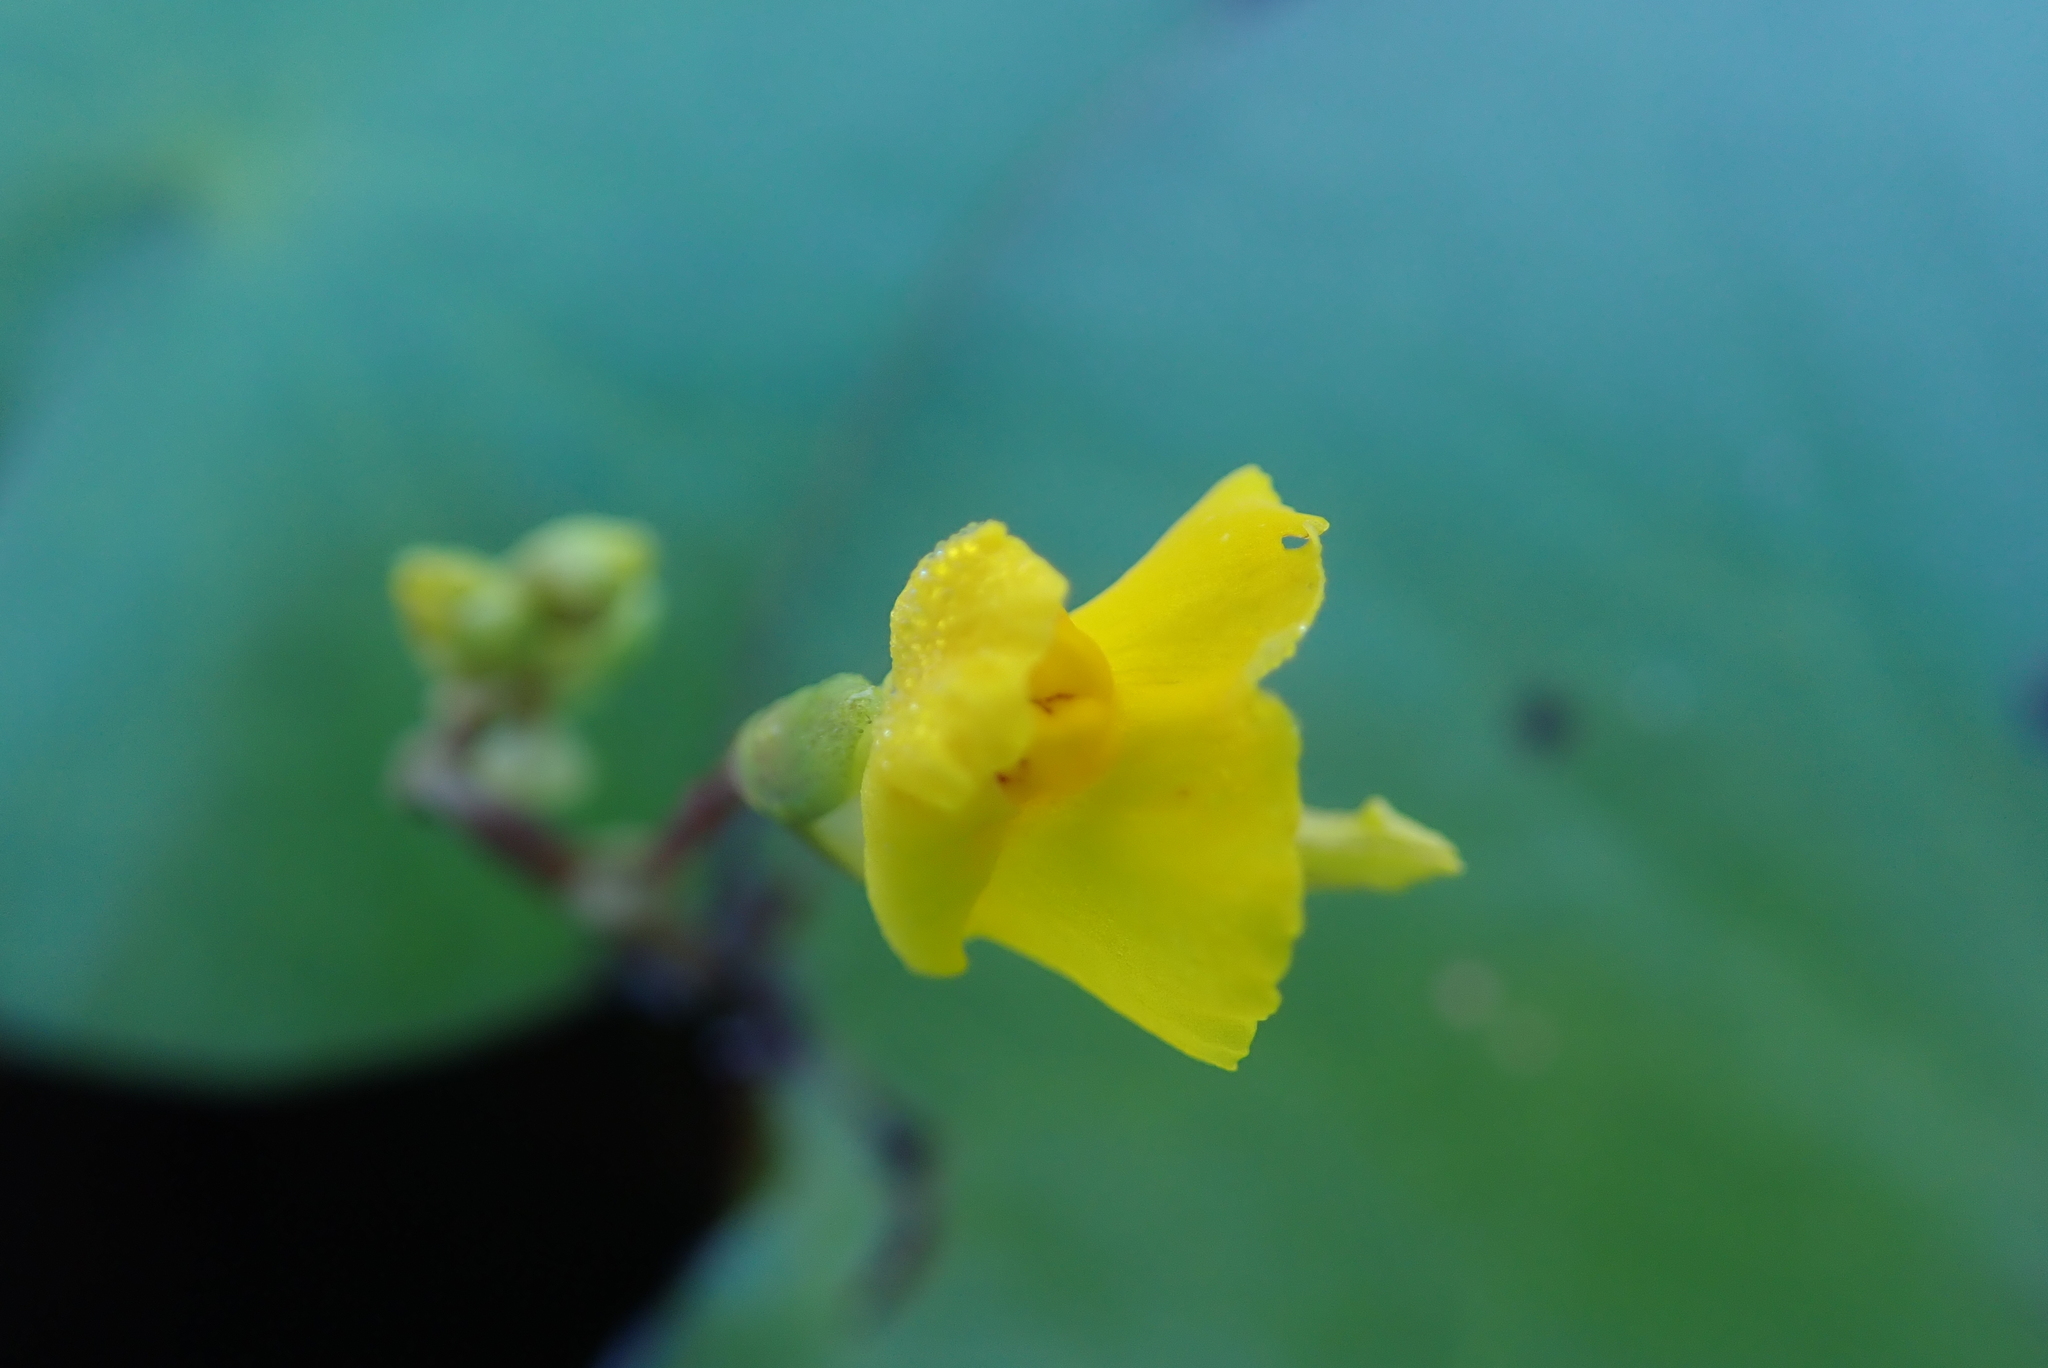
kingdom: Plantae
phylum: Tracheophyta
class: Magnoliopsida
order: Lamiales
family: Lentibulariaceae
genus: Utricularia
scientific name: Utricularia macrorhiza
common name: Common bladderwort
